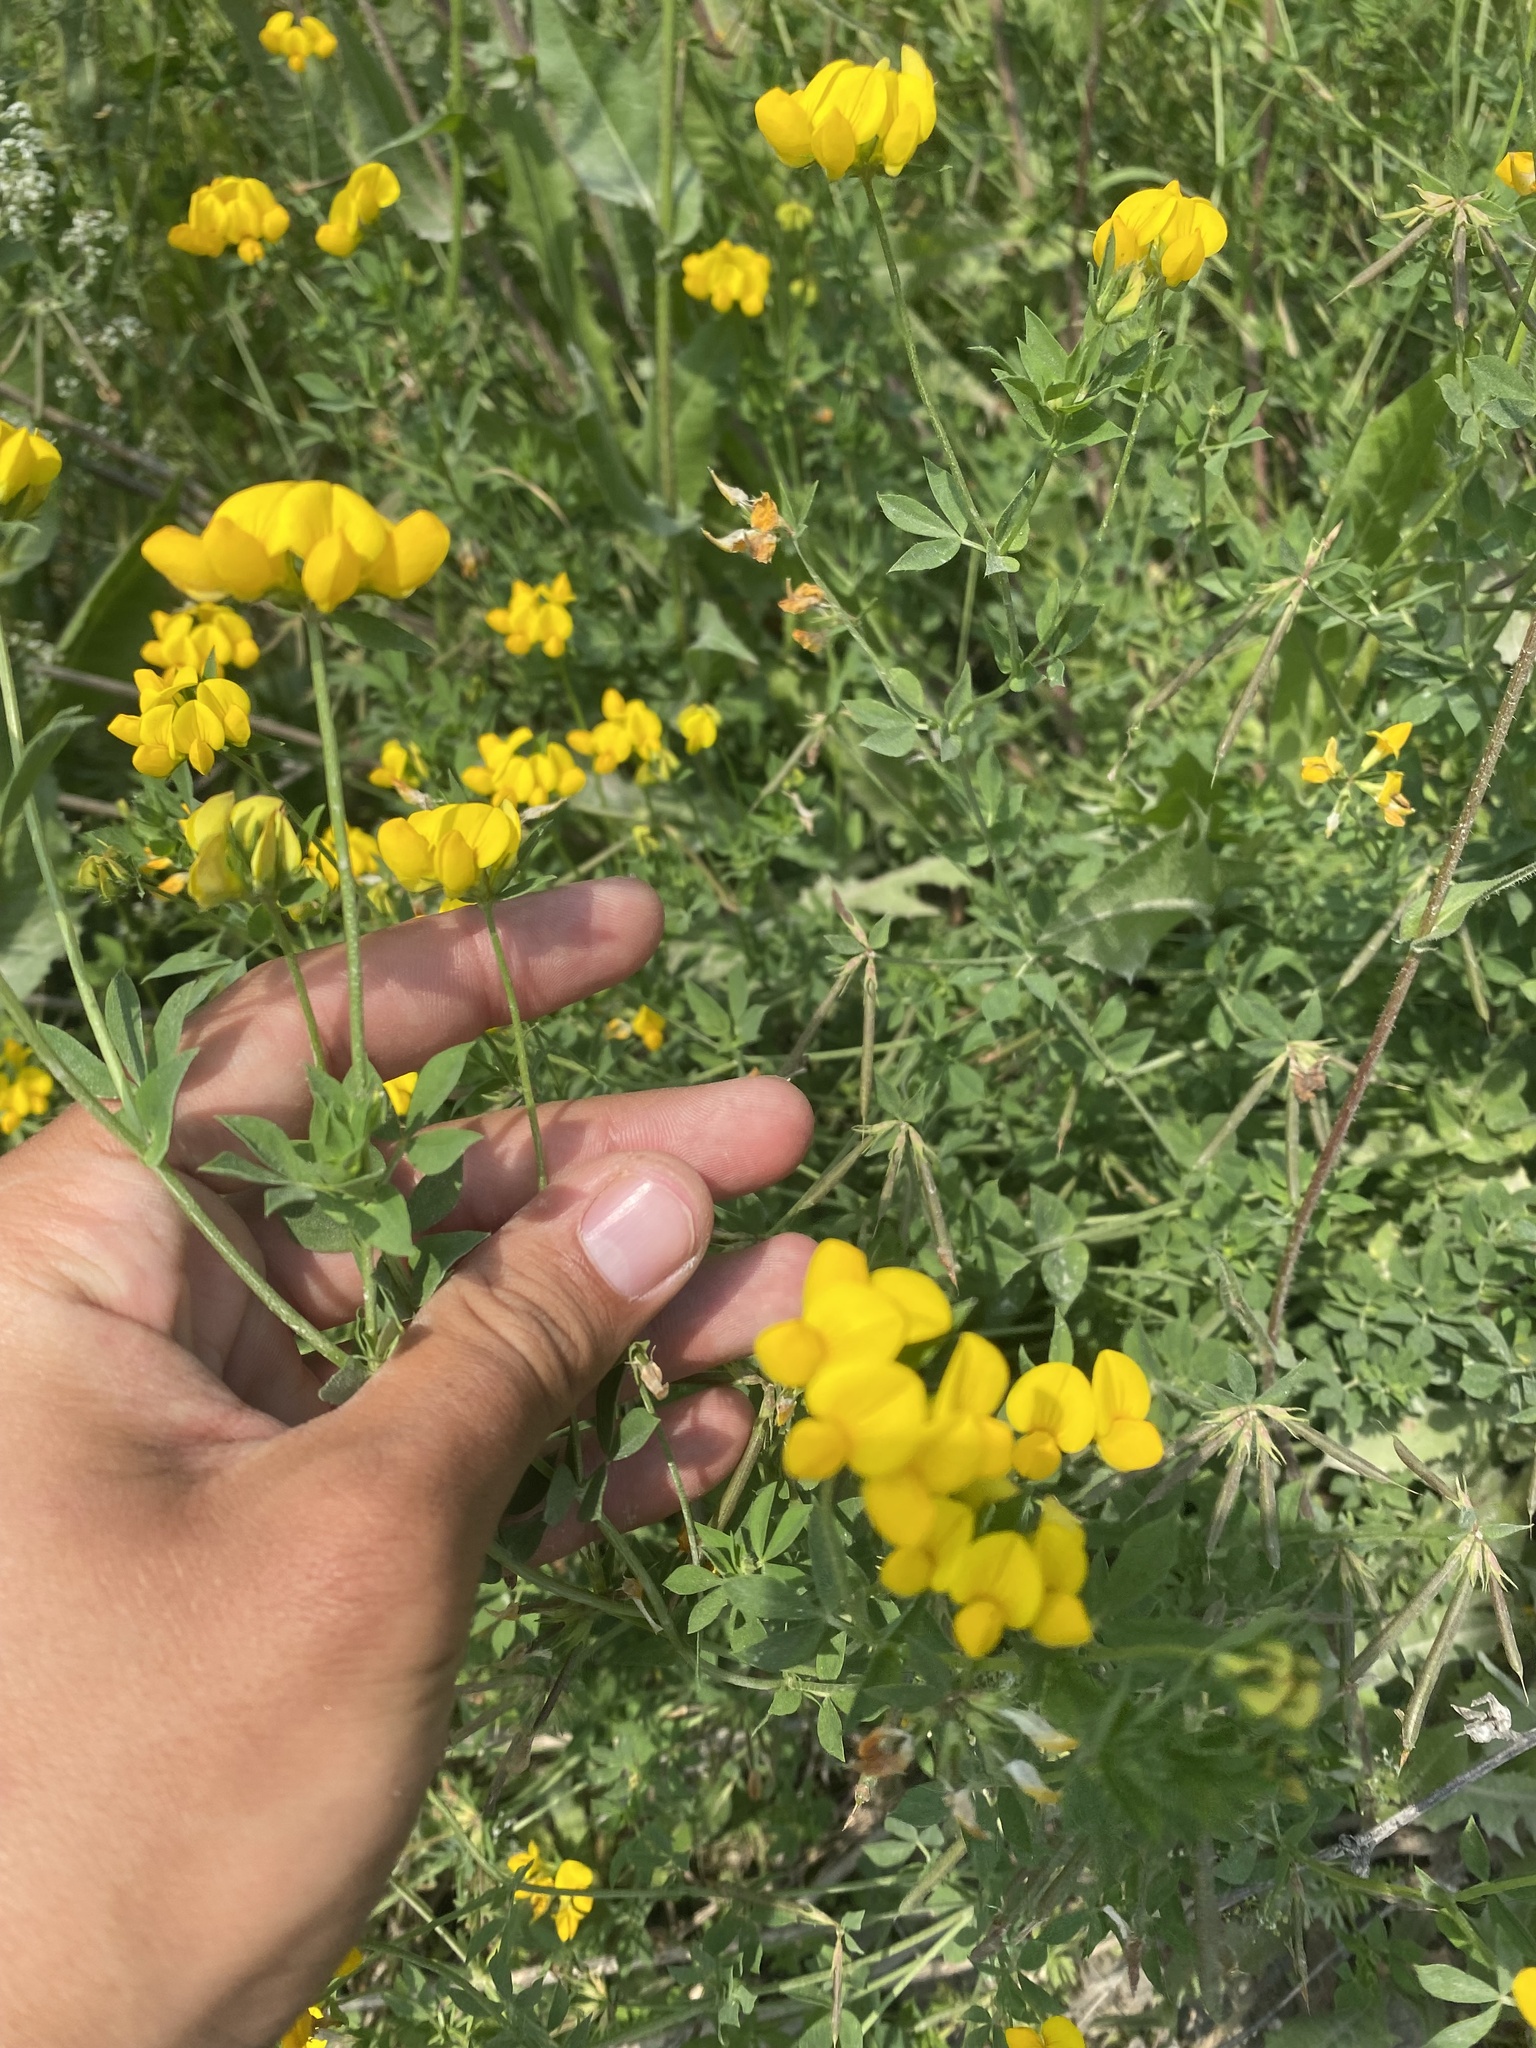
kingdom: Plantae
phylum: Tracheophyta
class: Magnoliopsida
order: Fabales
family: Fabaceae
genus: Lotus
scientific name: Lotus corniculatus
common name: Common bird's-foot-trefoil
